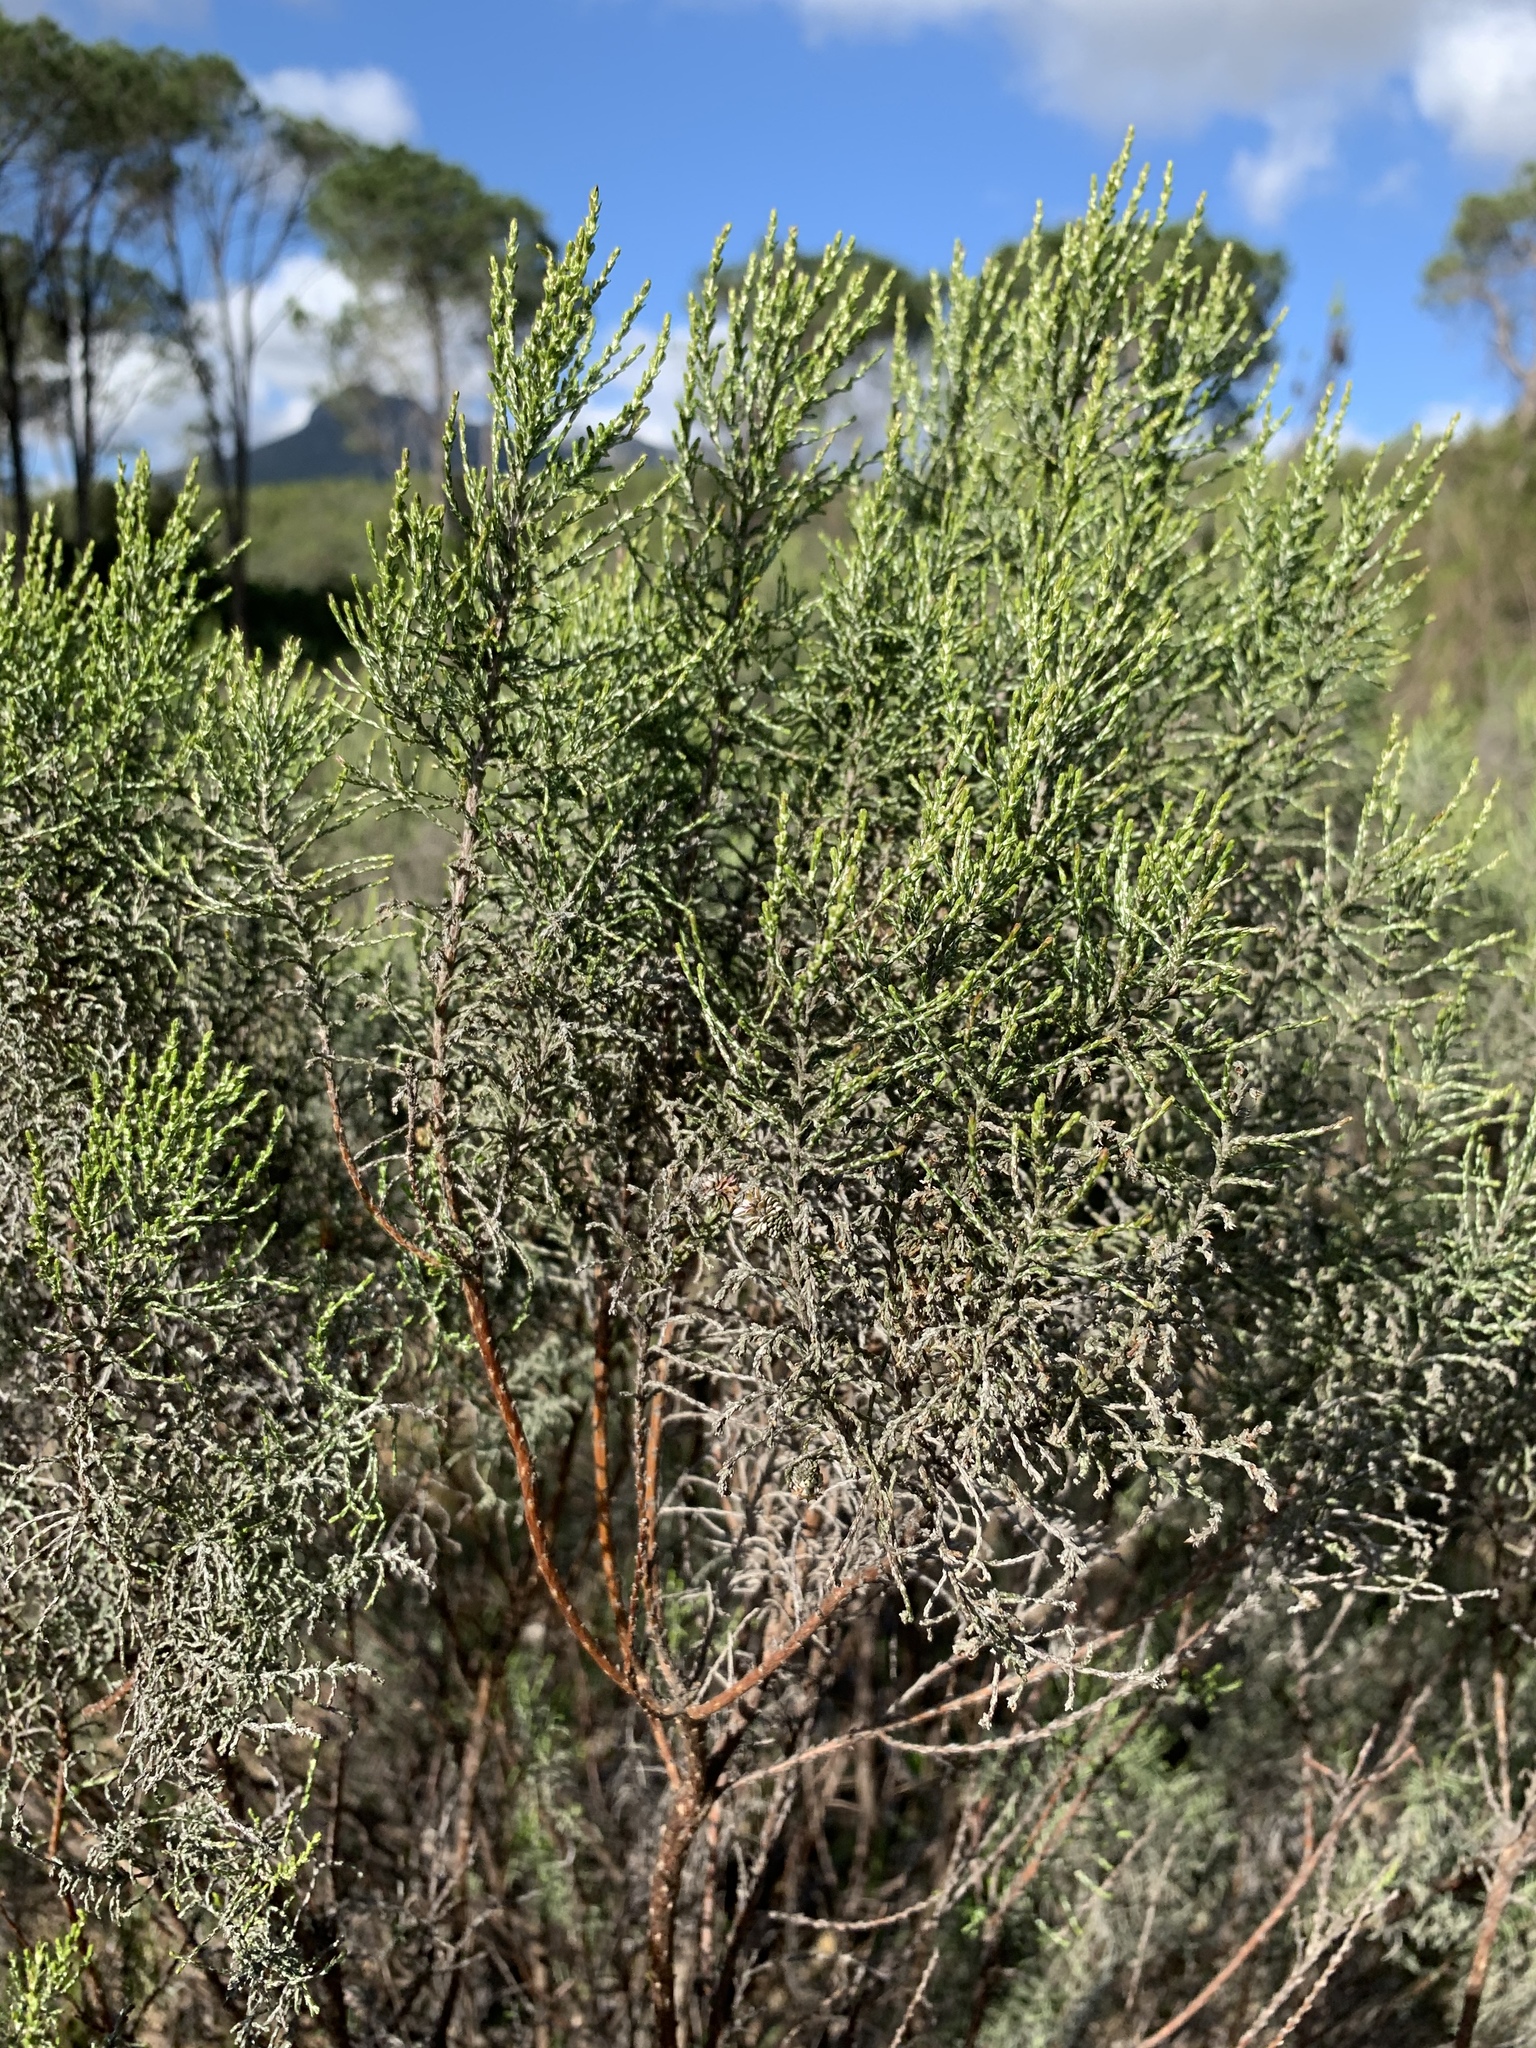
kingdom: Plantae
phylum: Tracheophyta
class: Magnoliopsida
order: Asterales
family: Asteraceae
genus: Dicerothamnus
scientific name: Dicerothamnus rhinocerotis
